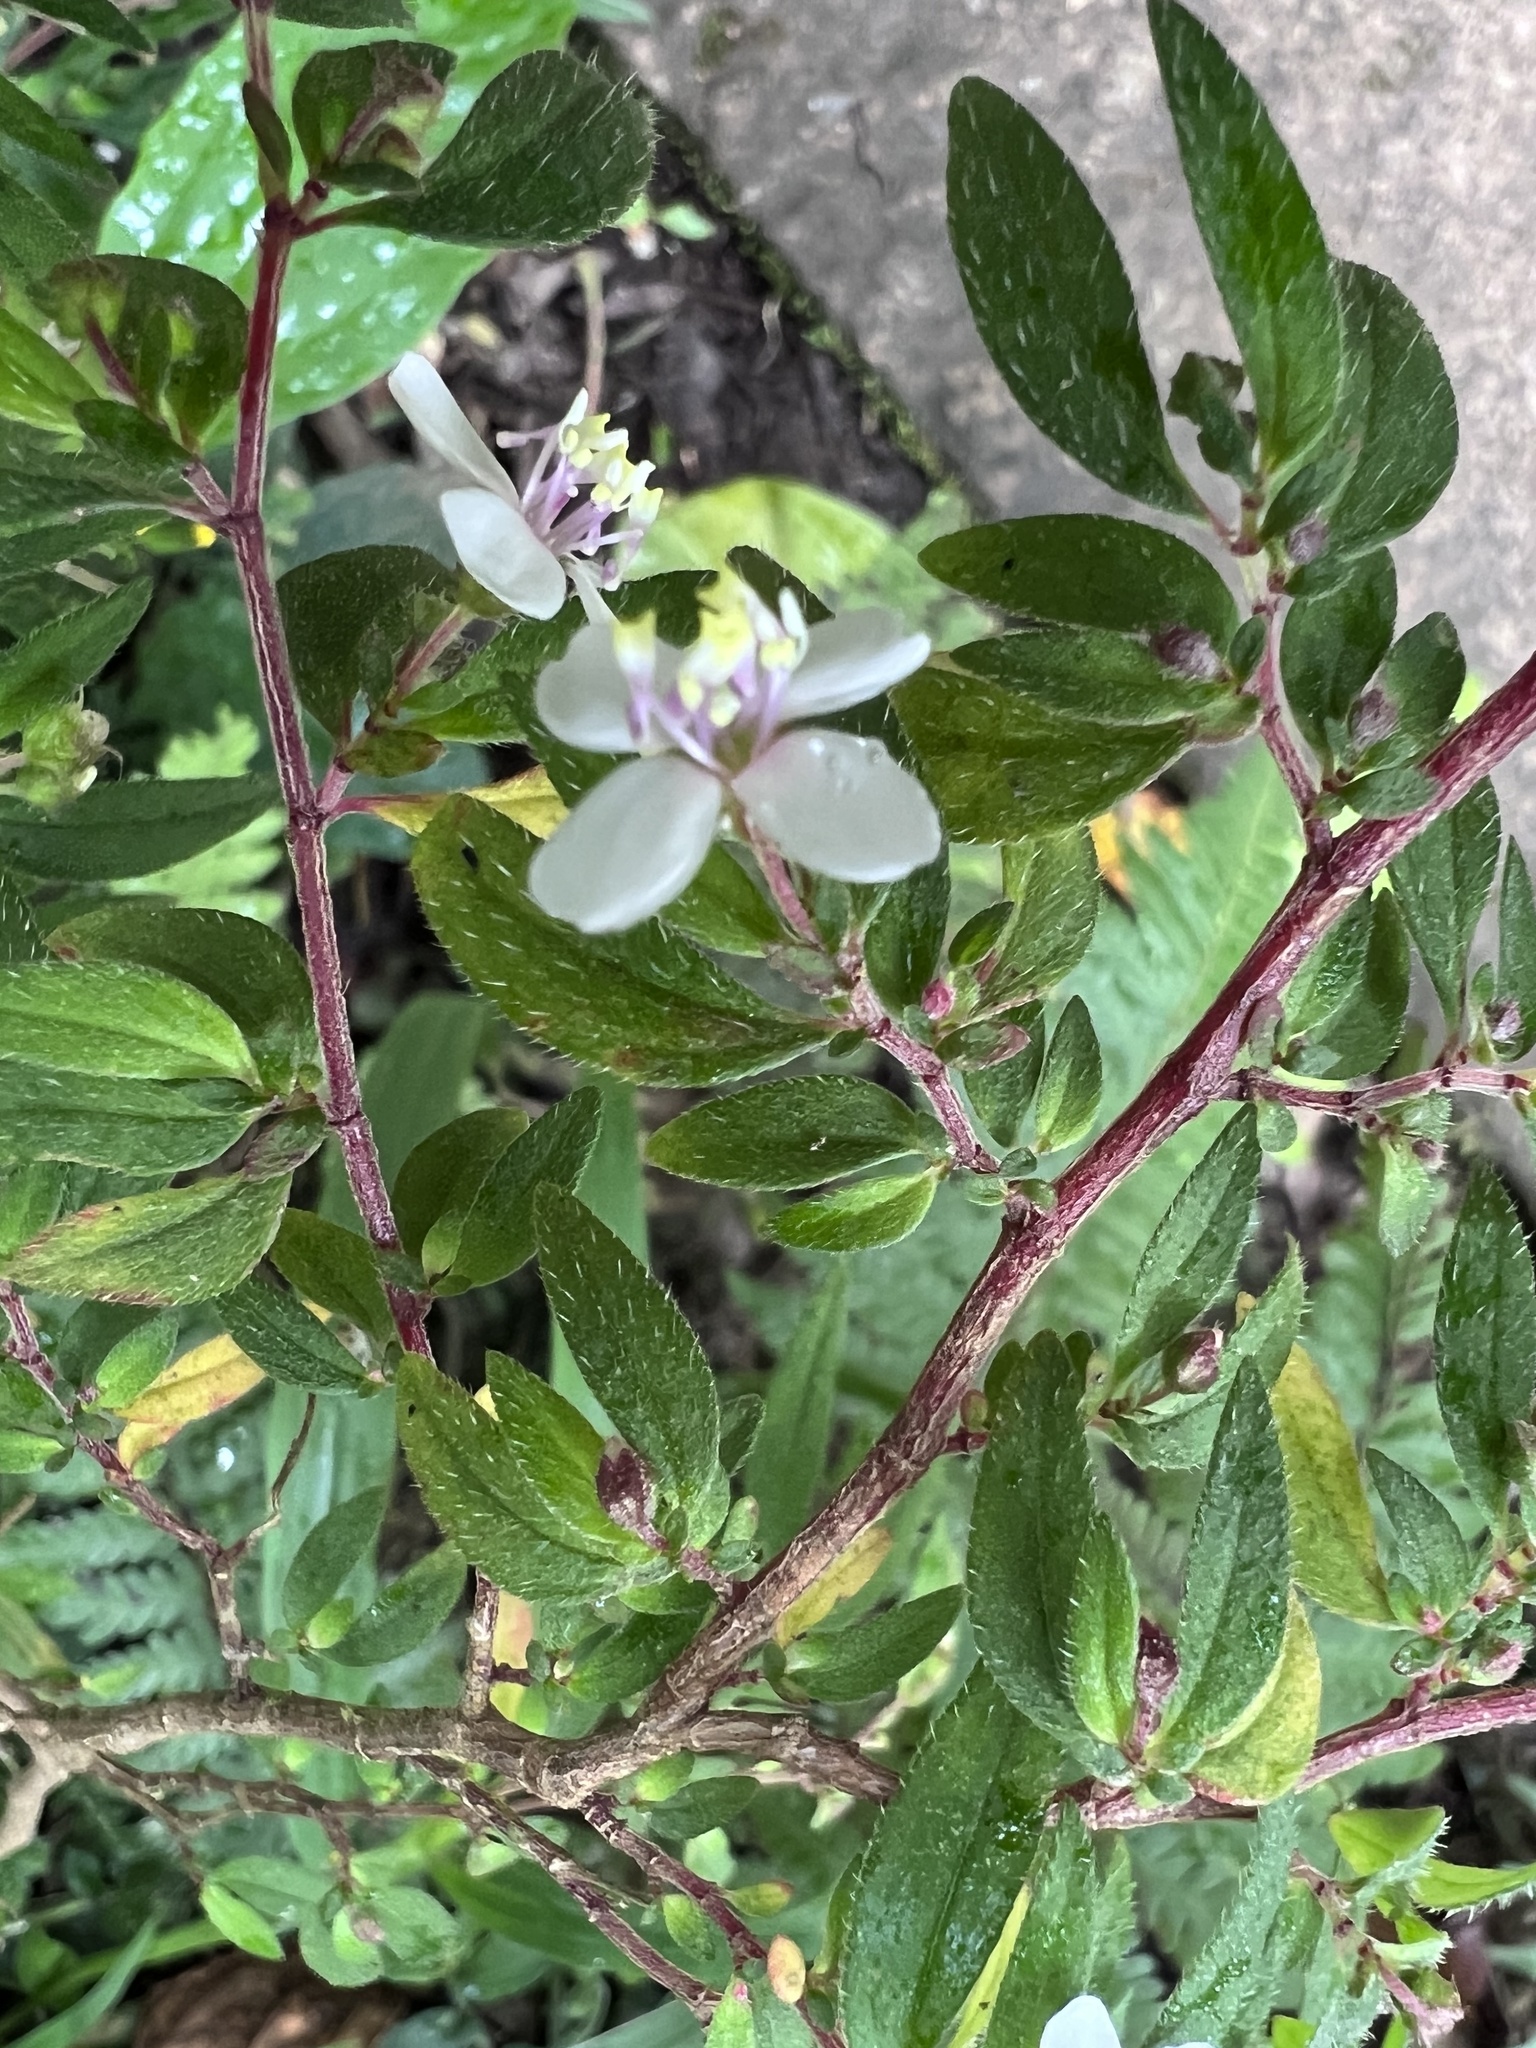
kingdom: Plantae
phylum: Tracheophyta
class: Magnoliopsida
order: Myrtales
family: Melastomataceae
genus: Centradenia
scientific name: Centradenia inaequilateralis
